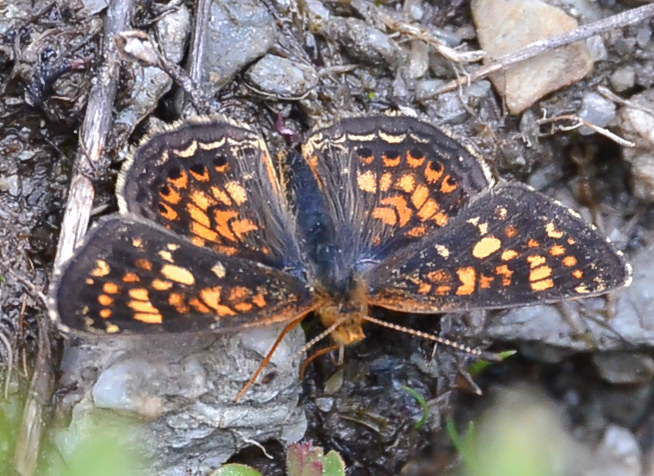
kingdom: Animalia
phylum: Arthropoda
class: Insecta
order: Lepidoptera
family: Nymphalidae
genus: Phyciodes
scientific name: Phyciodes tharos
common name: Pearl crescent
